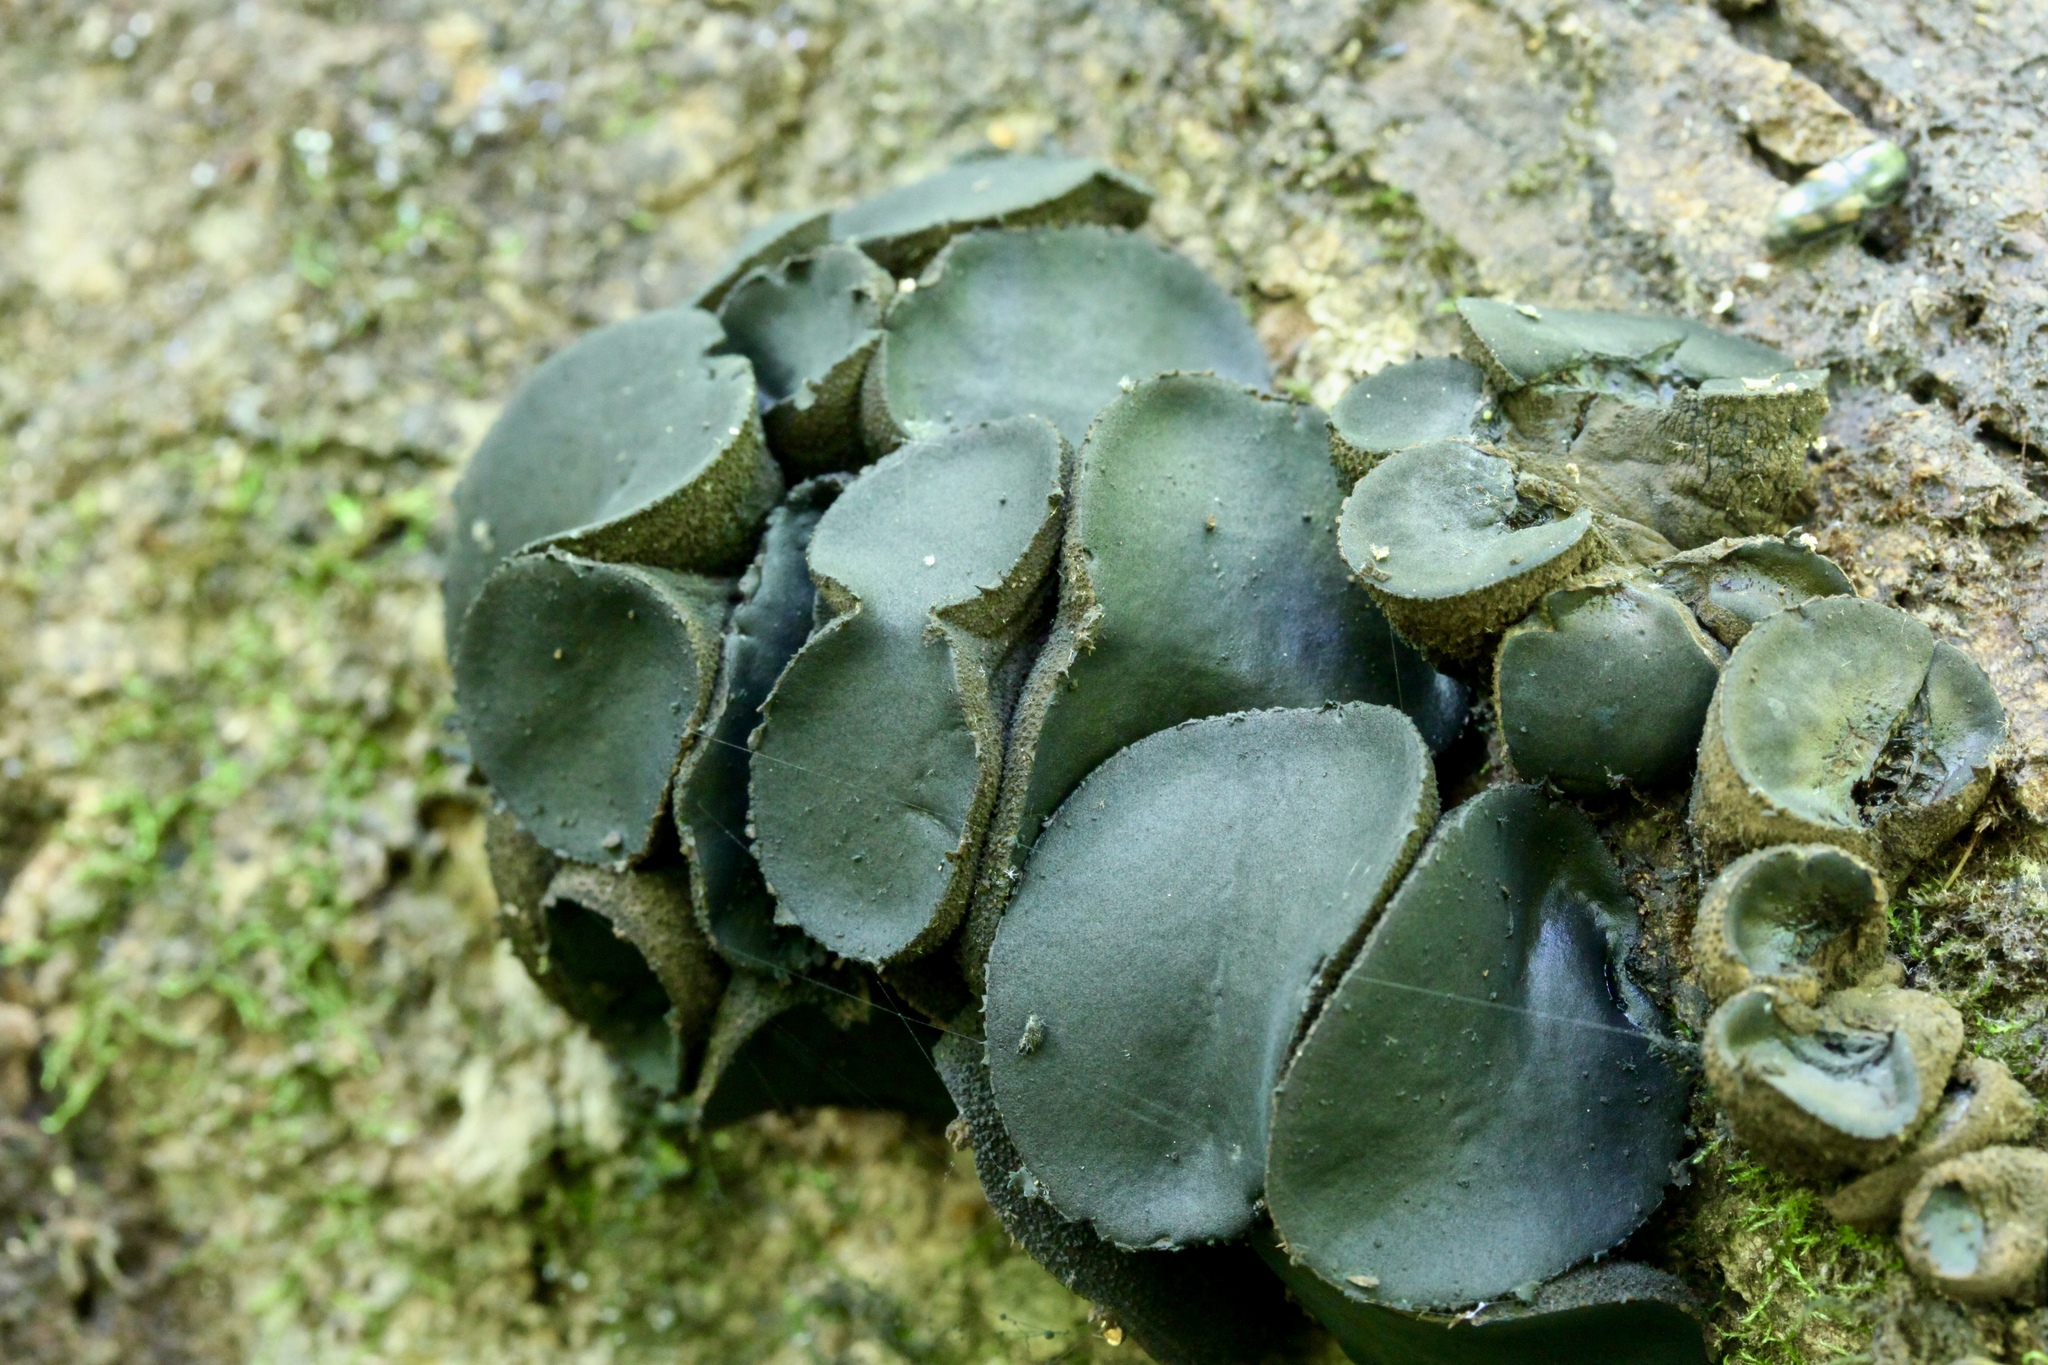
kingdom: Fungi
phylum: Ascomycota
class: Leotiomycetes
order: Phacidiales
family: Phacidiaceae
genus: Bulgaria
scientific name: Bulgaria inquinans
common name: Black bulgar
